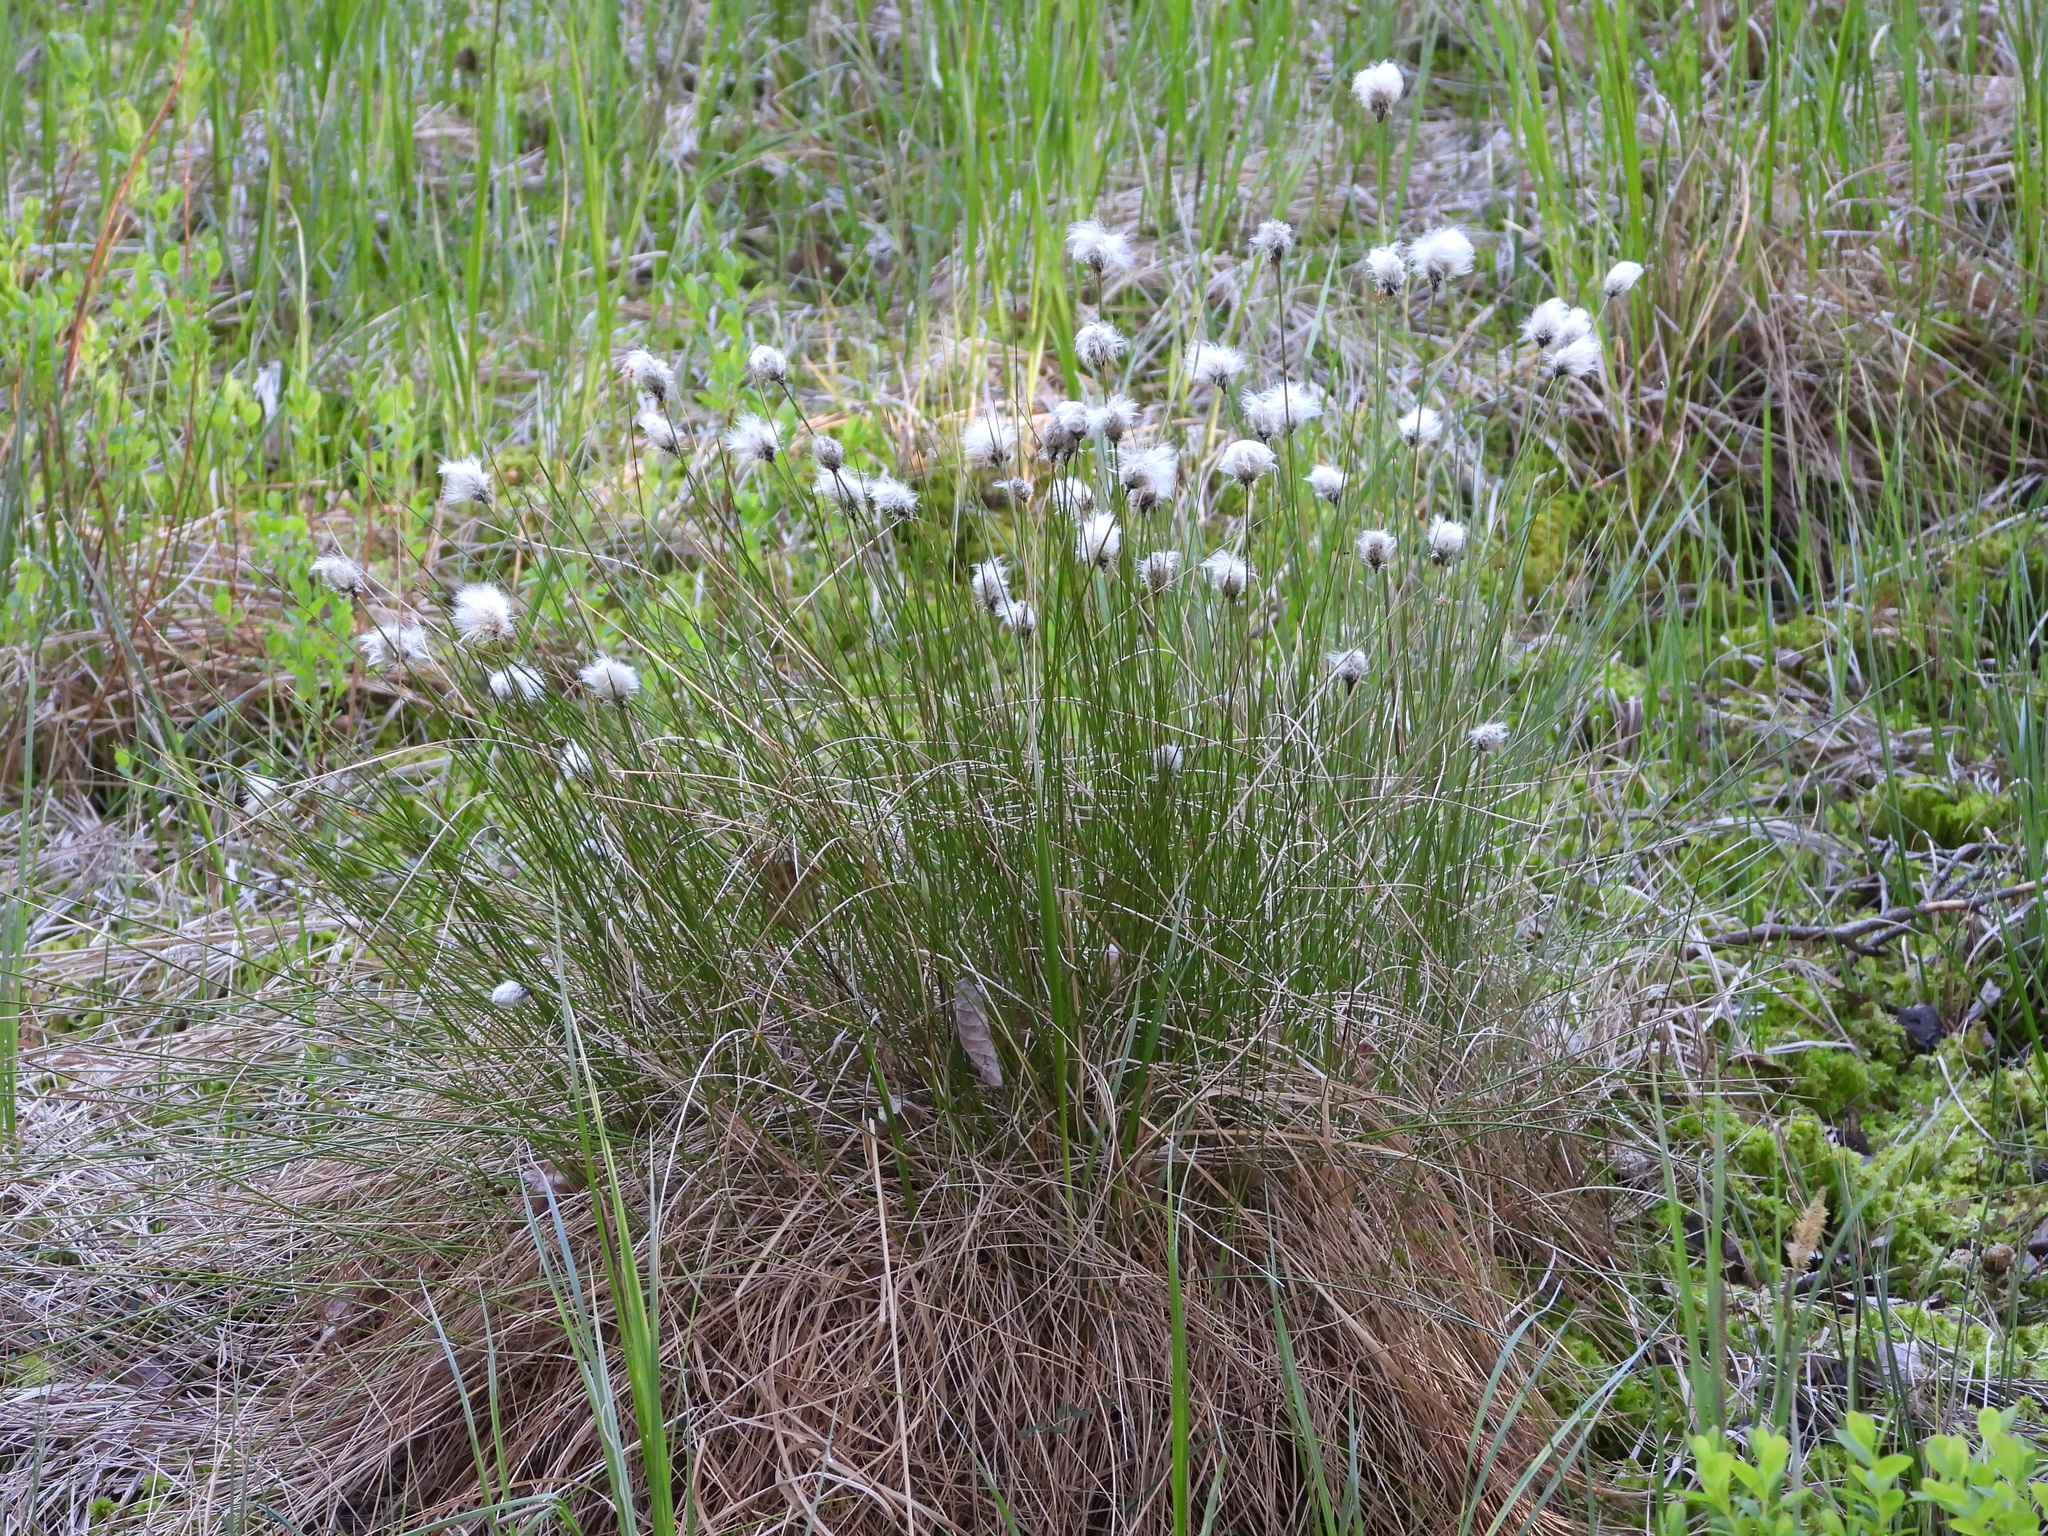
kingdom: Plantae
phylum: Tracheophyta
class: Liliopsida
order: Poales
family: Cyperaceae
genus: Eriophorum
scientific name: Eriophorum vaginatum
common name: Hare's-tail cottongrass
